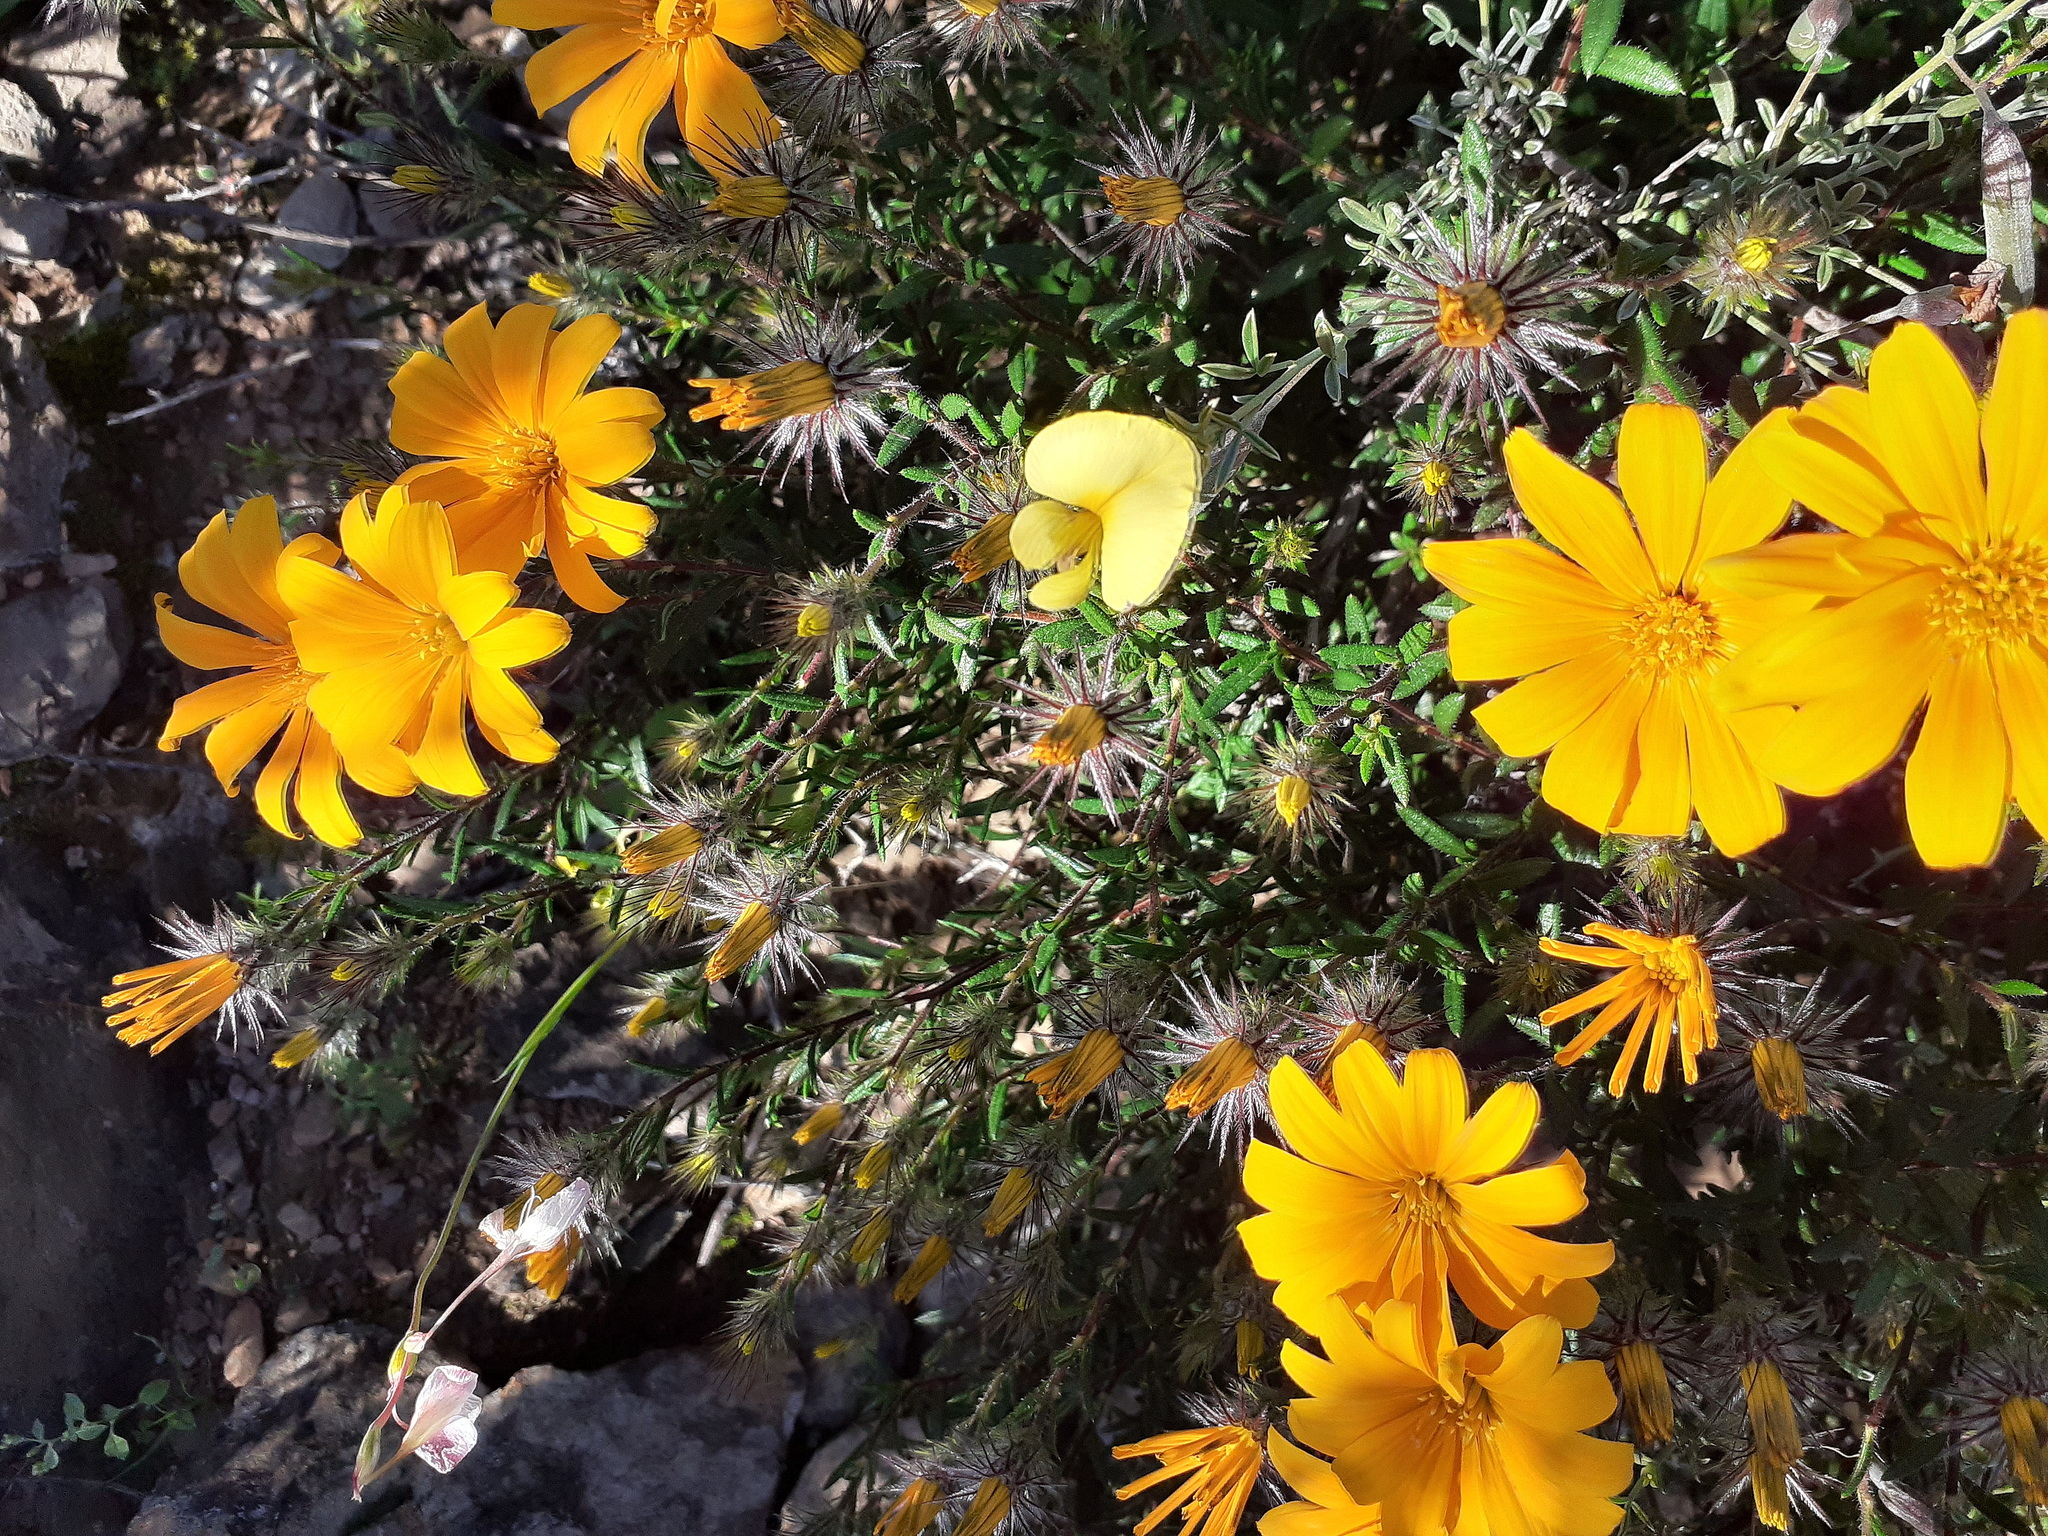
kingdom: Plantae
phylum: Tracheophyta
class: Magnoliopsida
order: Asterales
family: Asteraceae
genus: Hirpicium
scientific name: Hirpicium integrifolium
